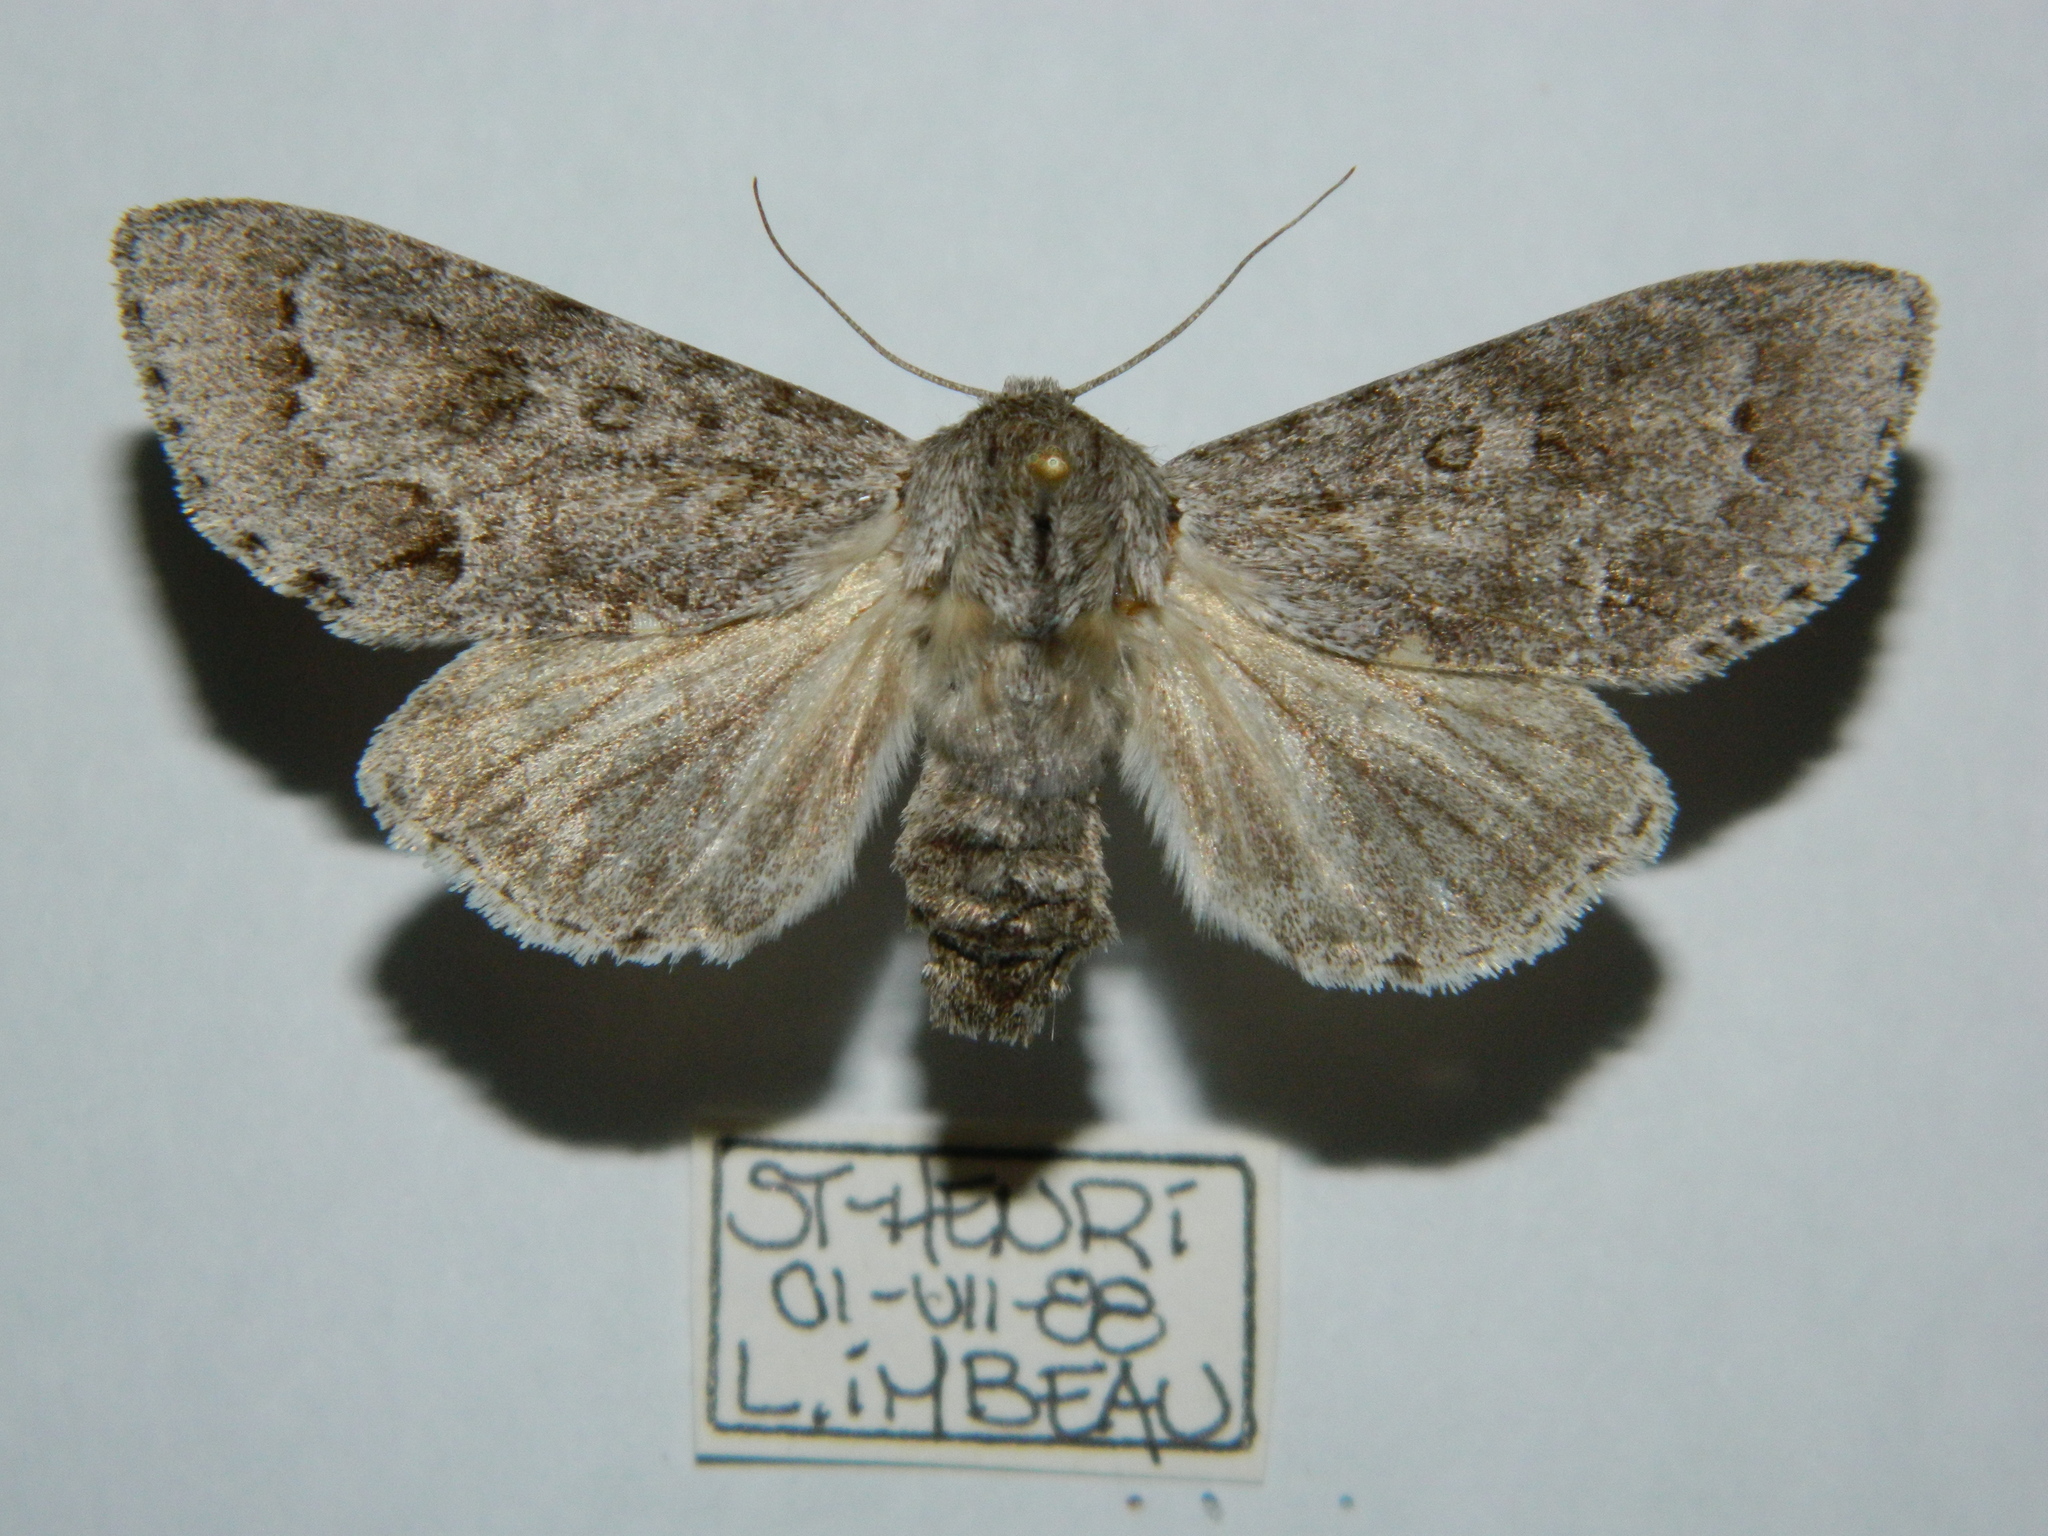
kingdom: Animalia
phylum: Arthropoda
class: Insecta
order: Lepidoptera
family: Noctuidae
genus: Acronicta
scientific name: Acronicta insita
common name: Large gray dagger
